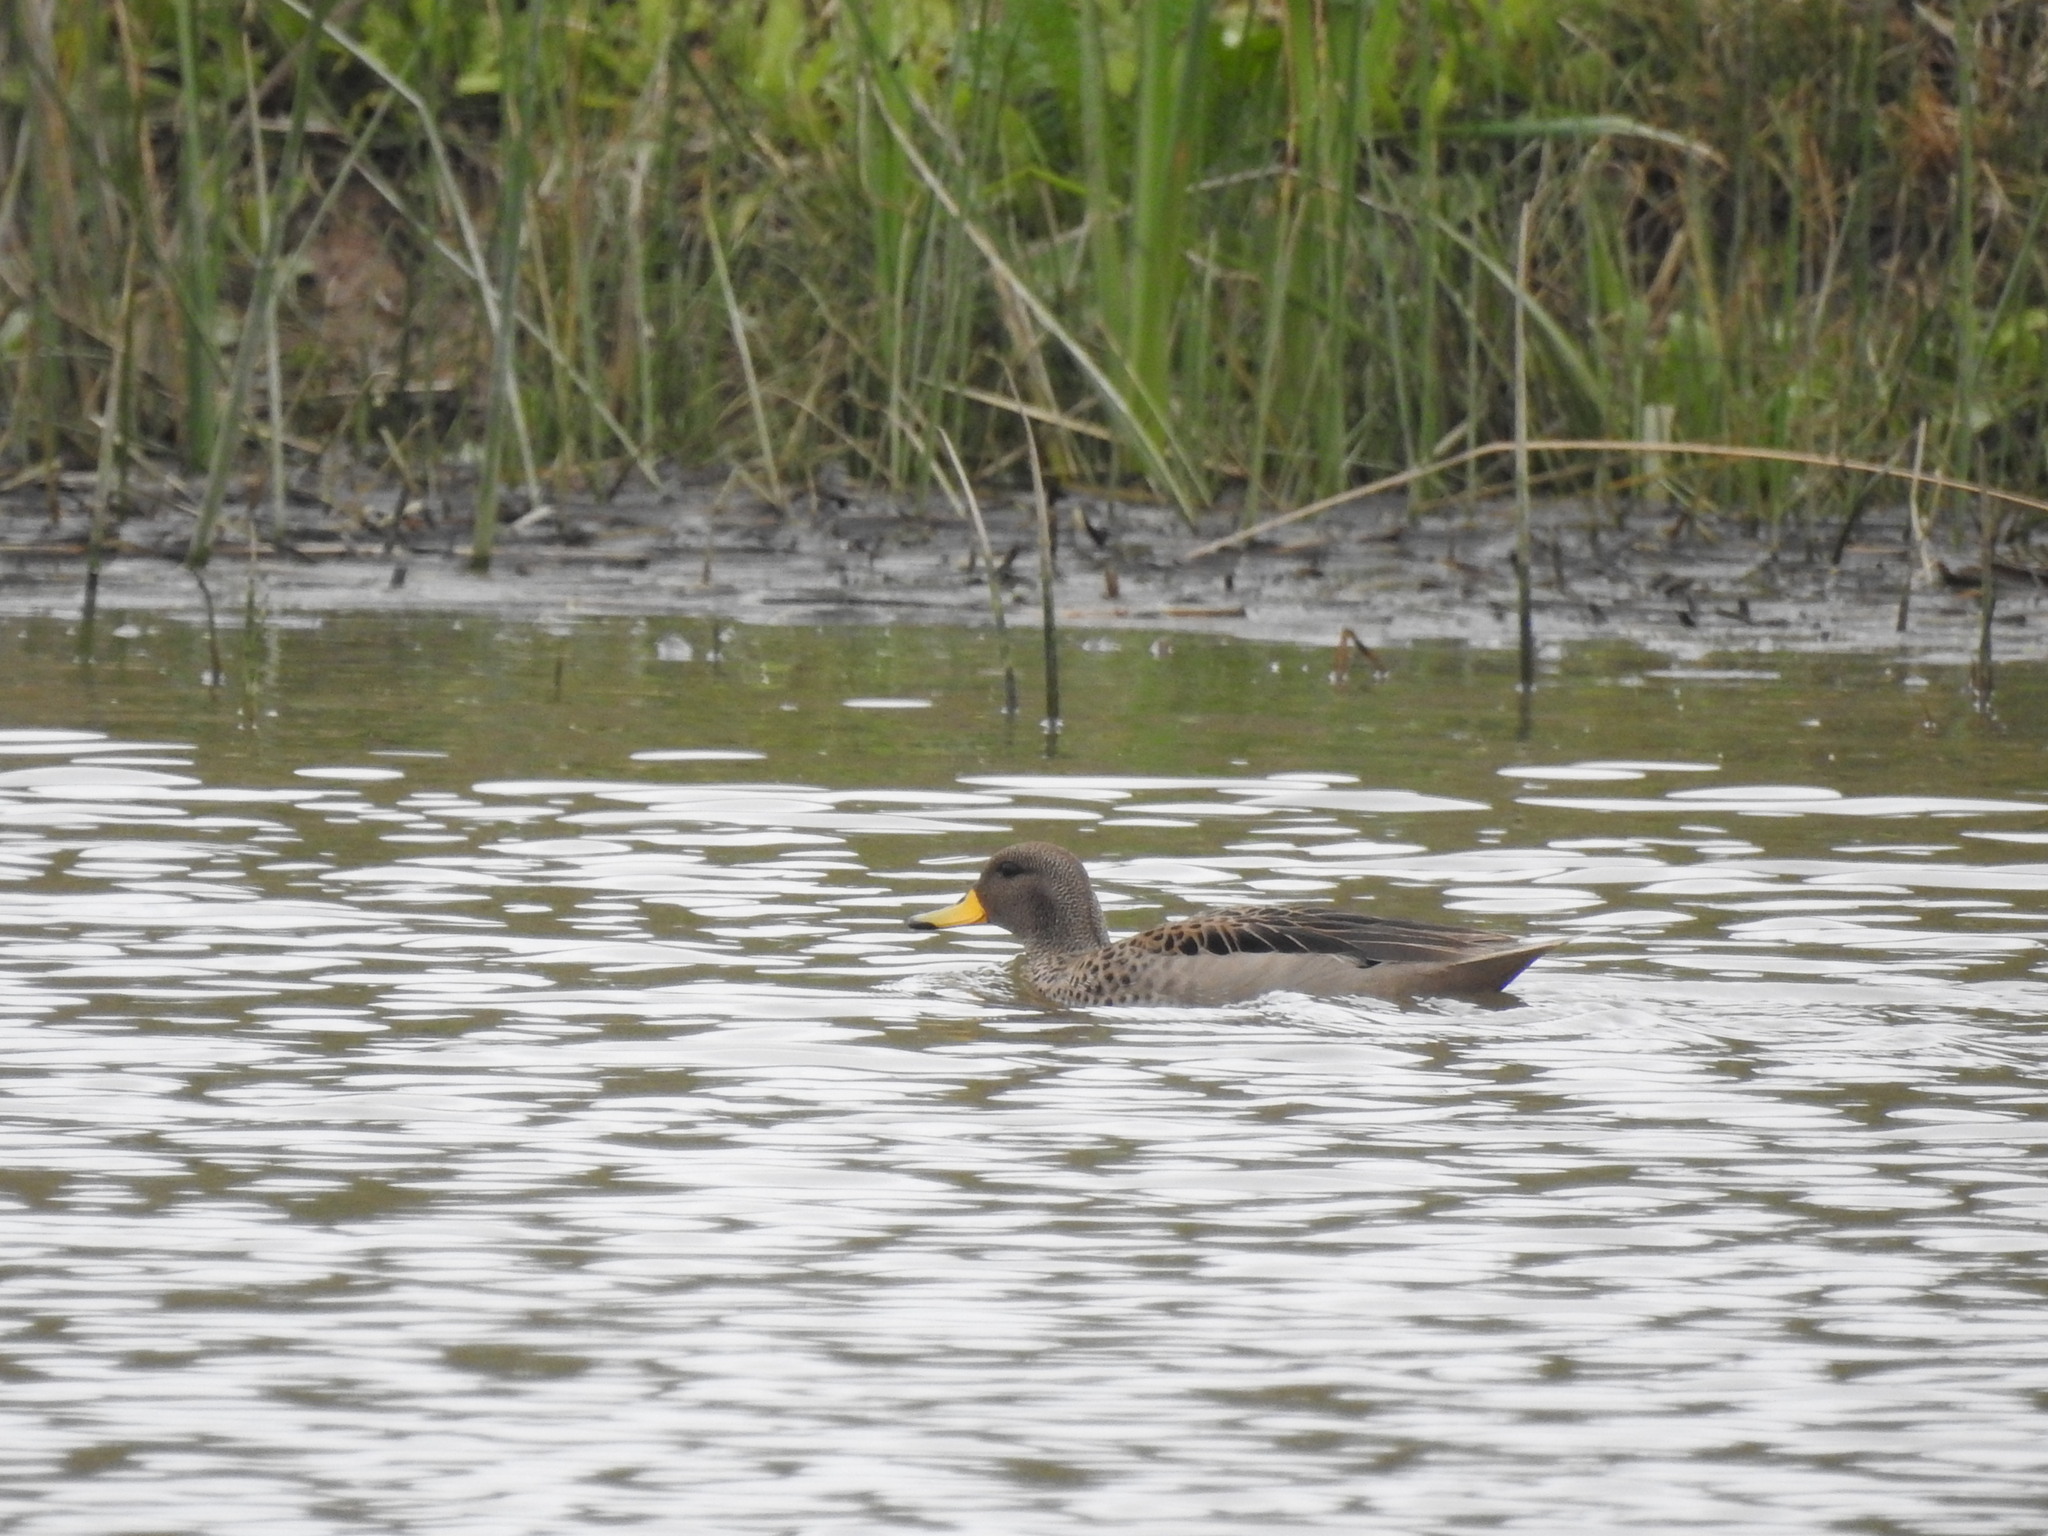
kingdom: Animalia
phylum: Chordata
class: Aves
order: Anseriformes
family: Anatidae
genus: Anas
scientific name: Anas flavirostris
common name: Yellow-billed teal
